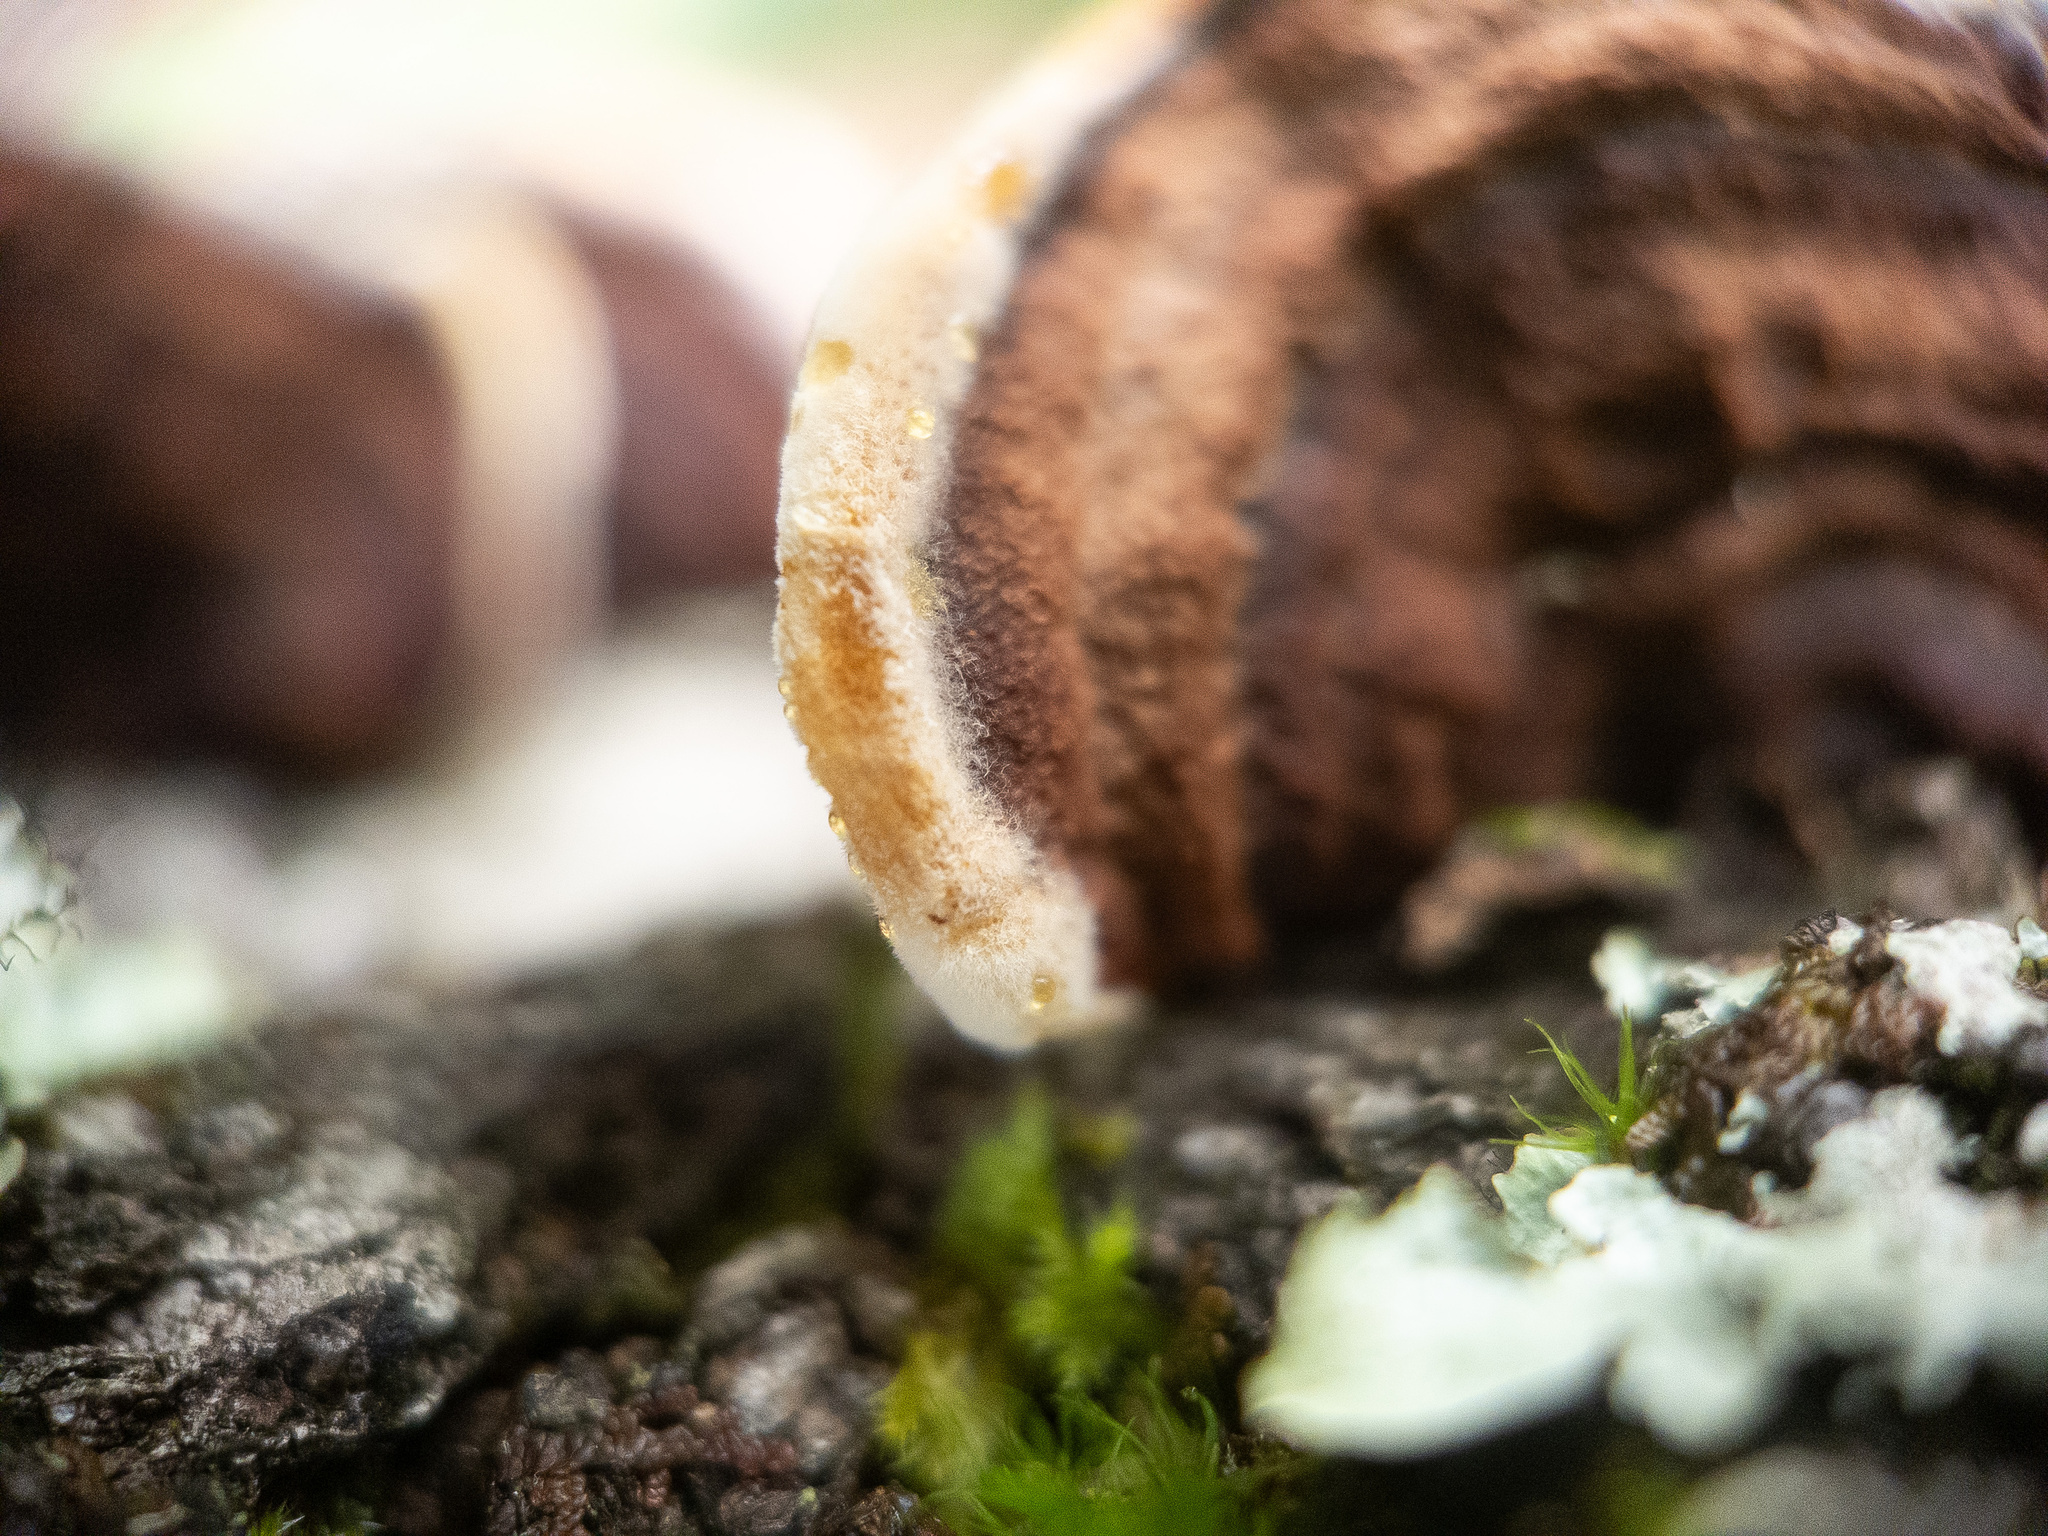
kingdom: Fungi
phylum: Basidiomycota
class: Agaricomycetes
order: Corticiales
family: Punctulariaceae
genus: Punctularia
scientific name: Punctularia strigosozonata
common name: White-rot fungus
